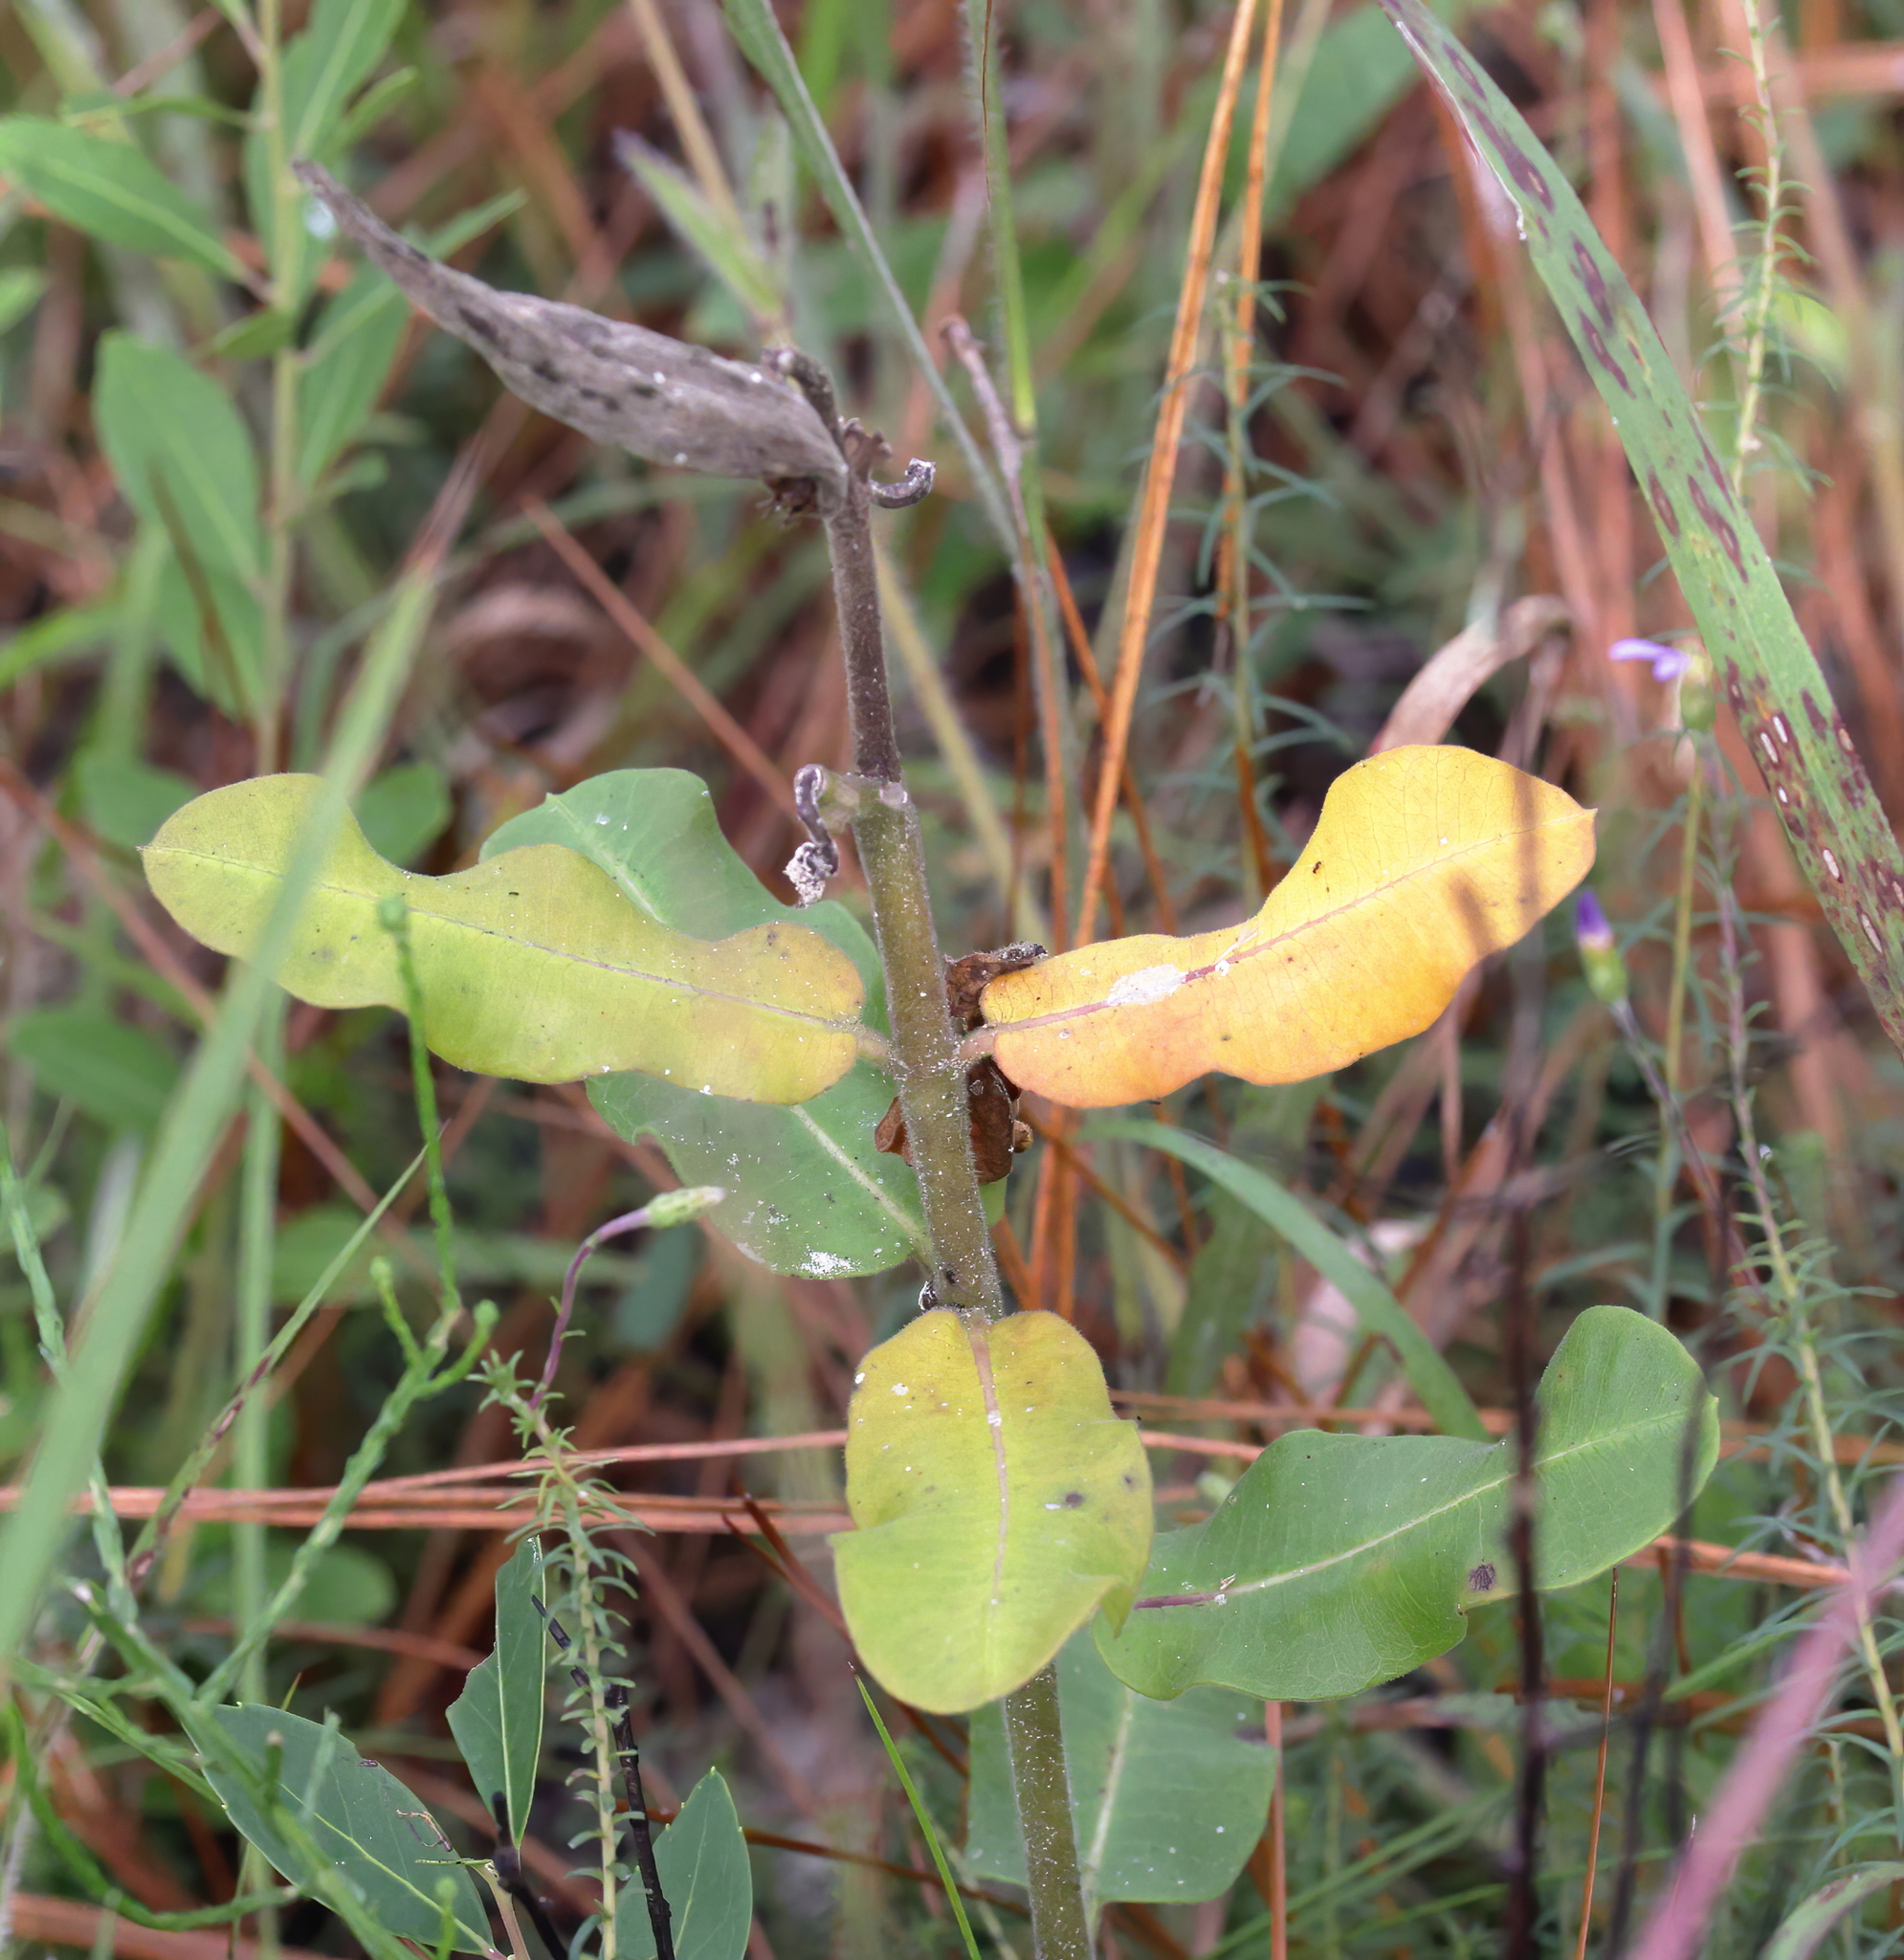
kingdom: Plantae
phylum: Tracheophyta
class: Magnoliopsida
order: Gentianales
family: Apocynaceae
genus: Asclepias
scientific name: Asclepias obovata
